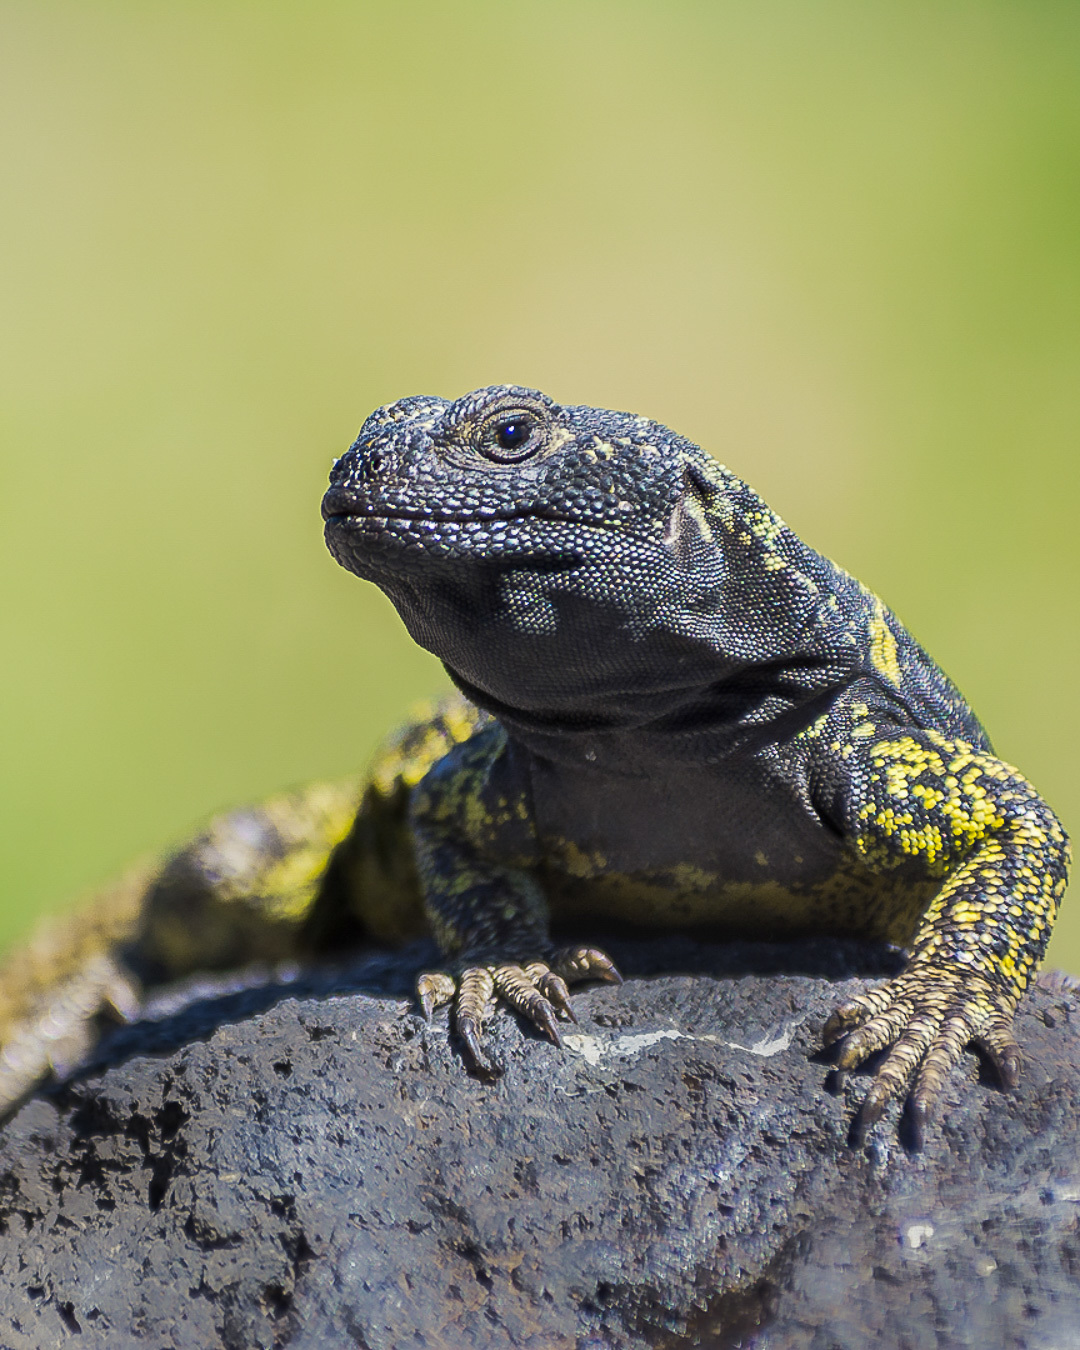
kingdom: Animalia
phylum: Chordata
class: Squamata
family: Liolaemidae
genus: Phymaturus
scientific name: Phymaturus vociferator
